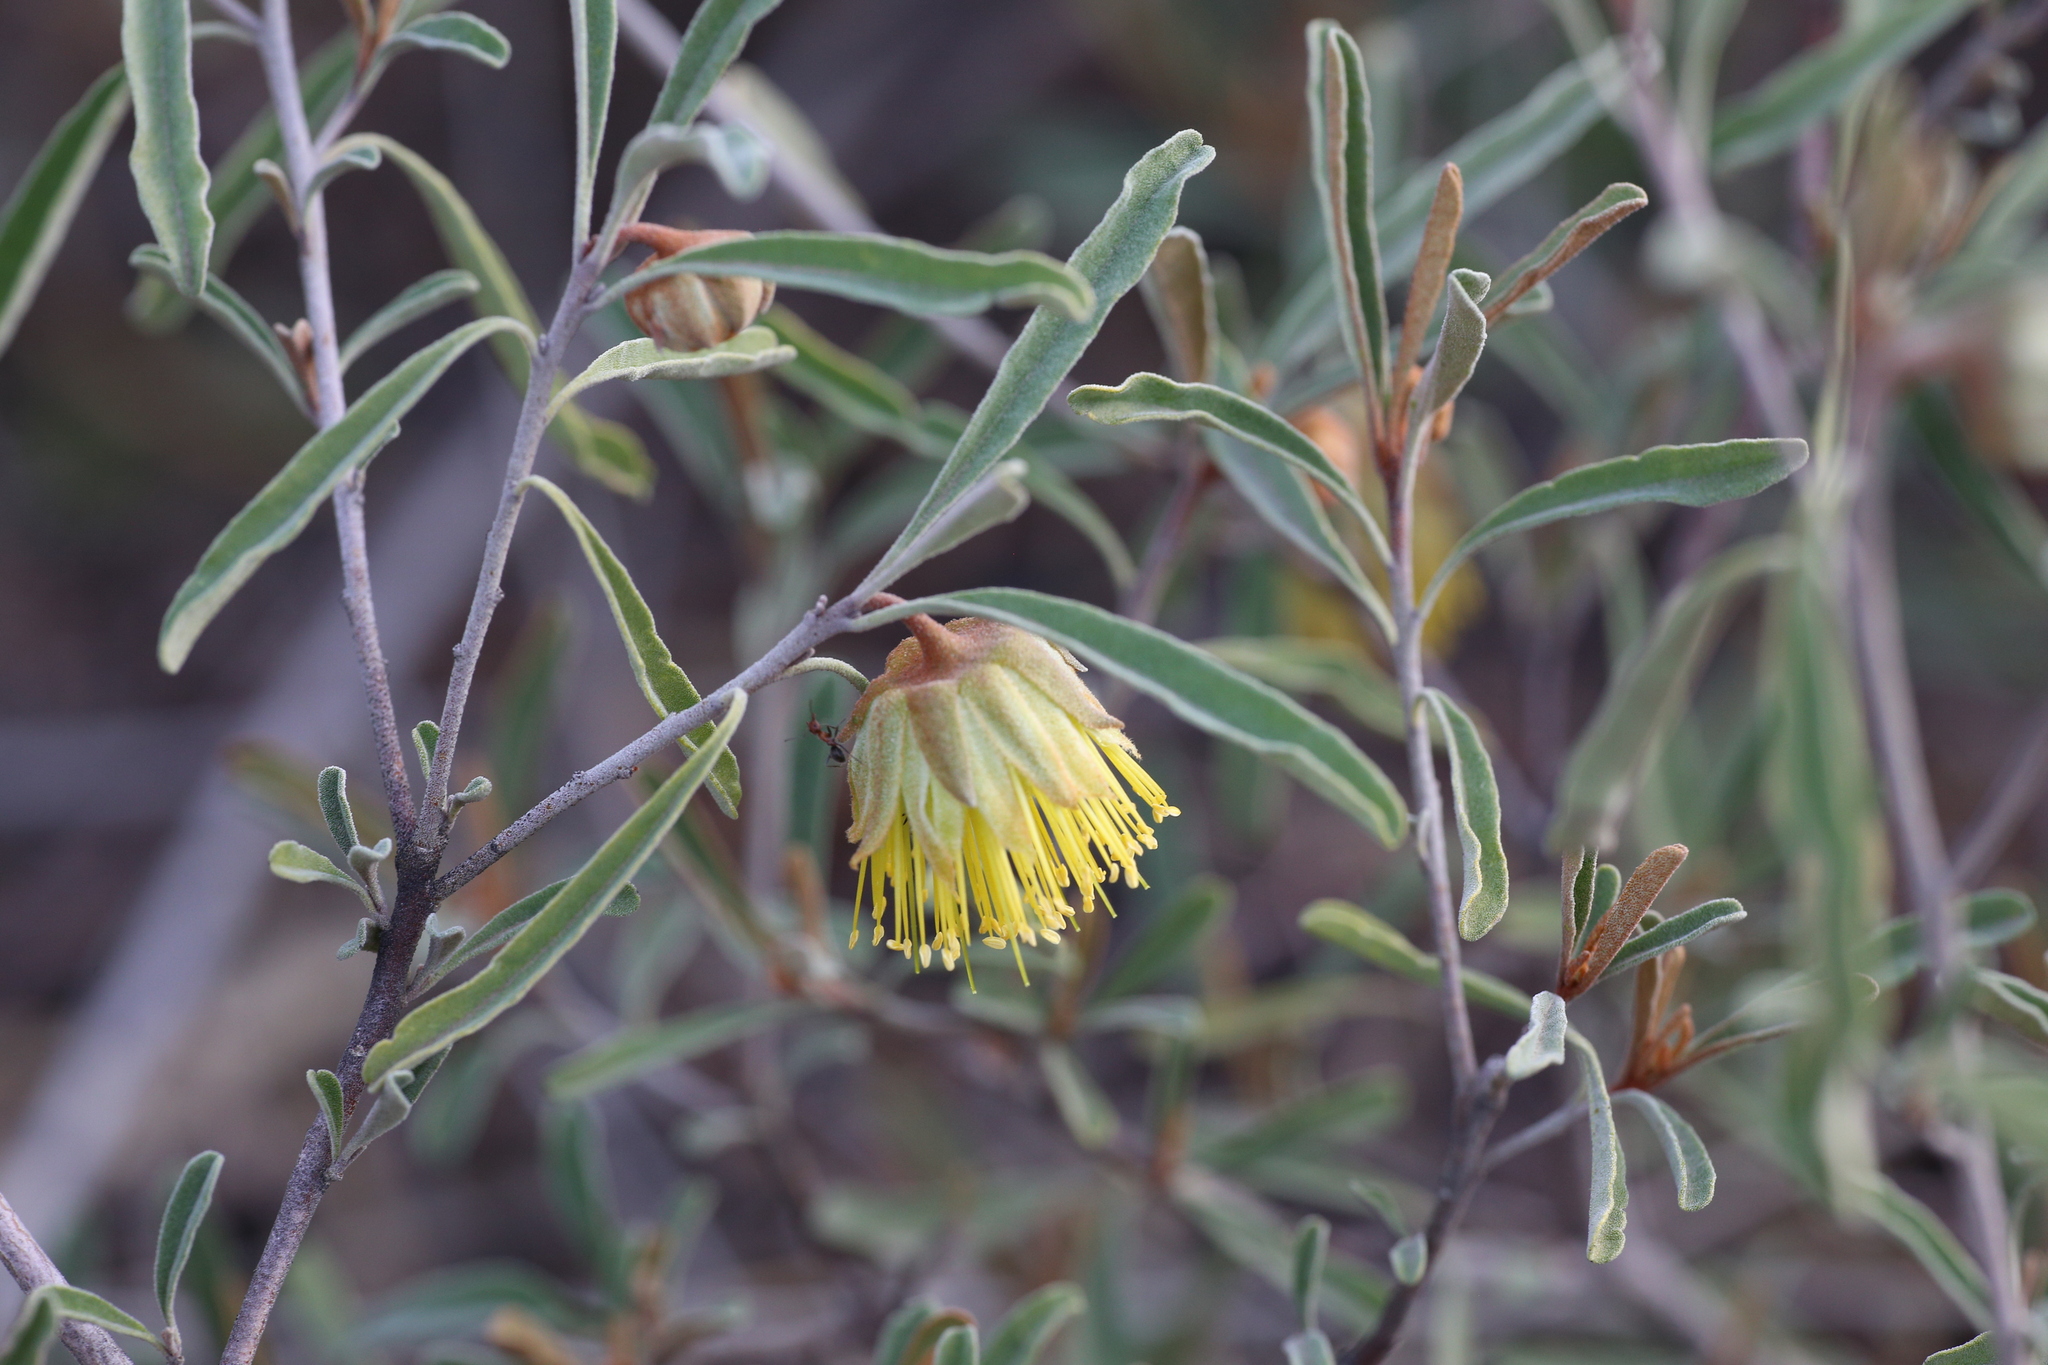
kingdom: Plantae
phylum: Tracheophyta
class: Magnoliopsida
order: Sapindales
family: Rutaceae
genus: Diplolaena
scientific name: Diplolaena velutina
